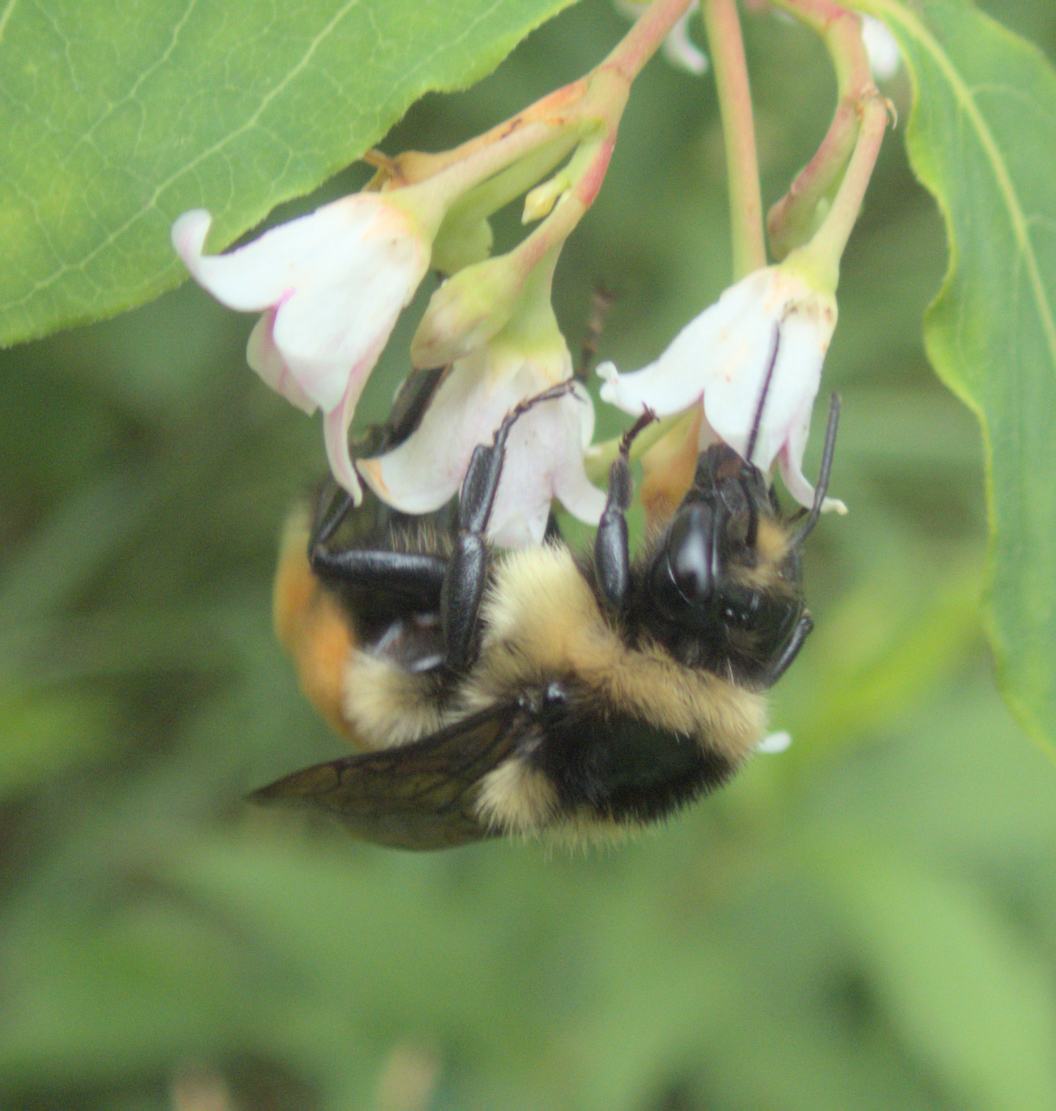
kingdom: Animalia
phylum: Arthropoda
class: Insecta
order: Hymenoptera
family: Apidae
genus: Bombus
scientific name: Bombus ternarius
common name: Tri-colored bumble bee
